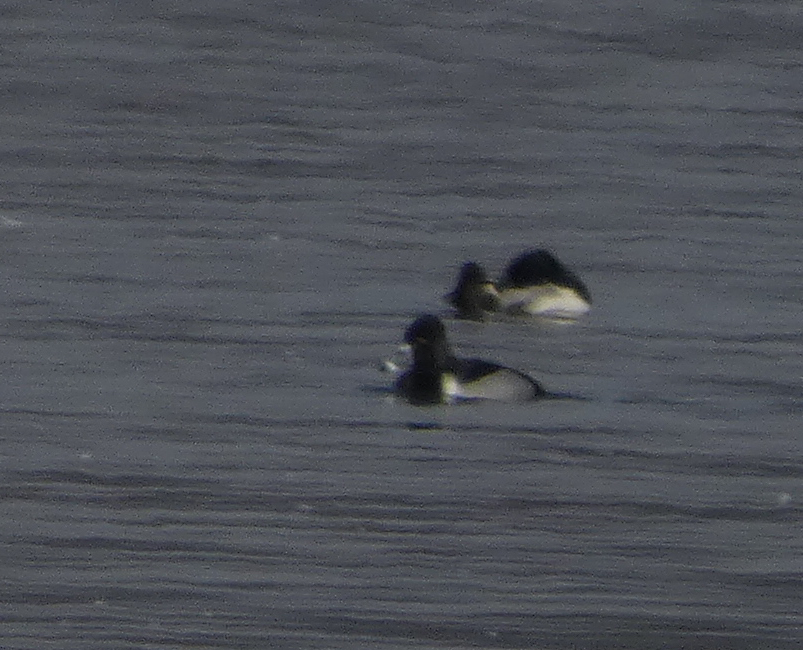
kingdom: Animalia
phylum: Chordata
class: Aves
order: Anseriformes
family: Anatidae
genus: Aythya
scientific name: Aythya collaris
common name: Ring-necked duck
